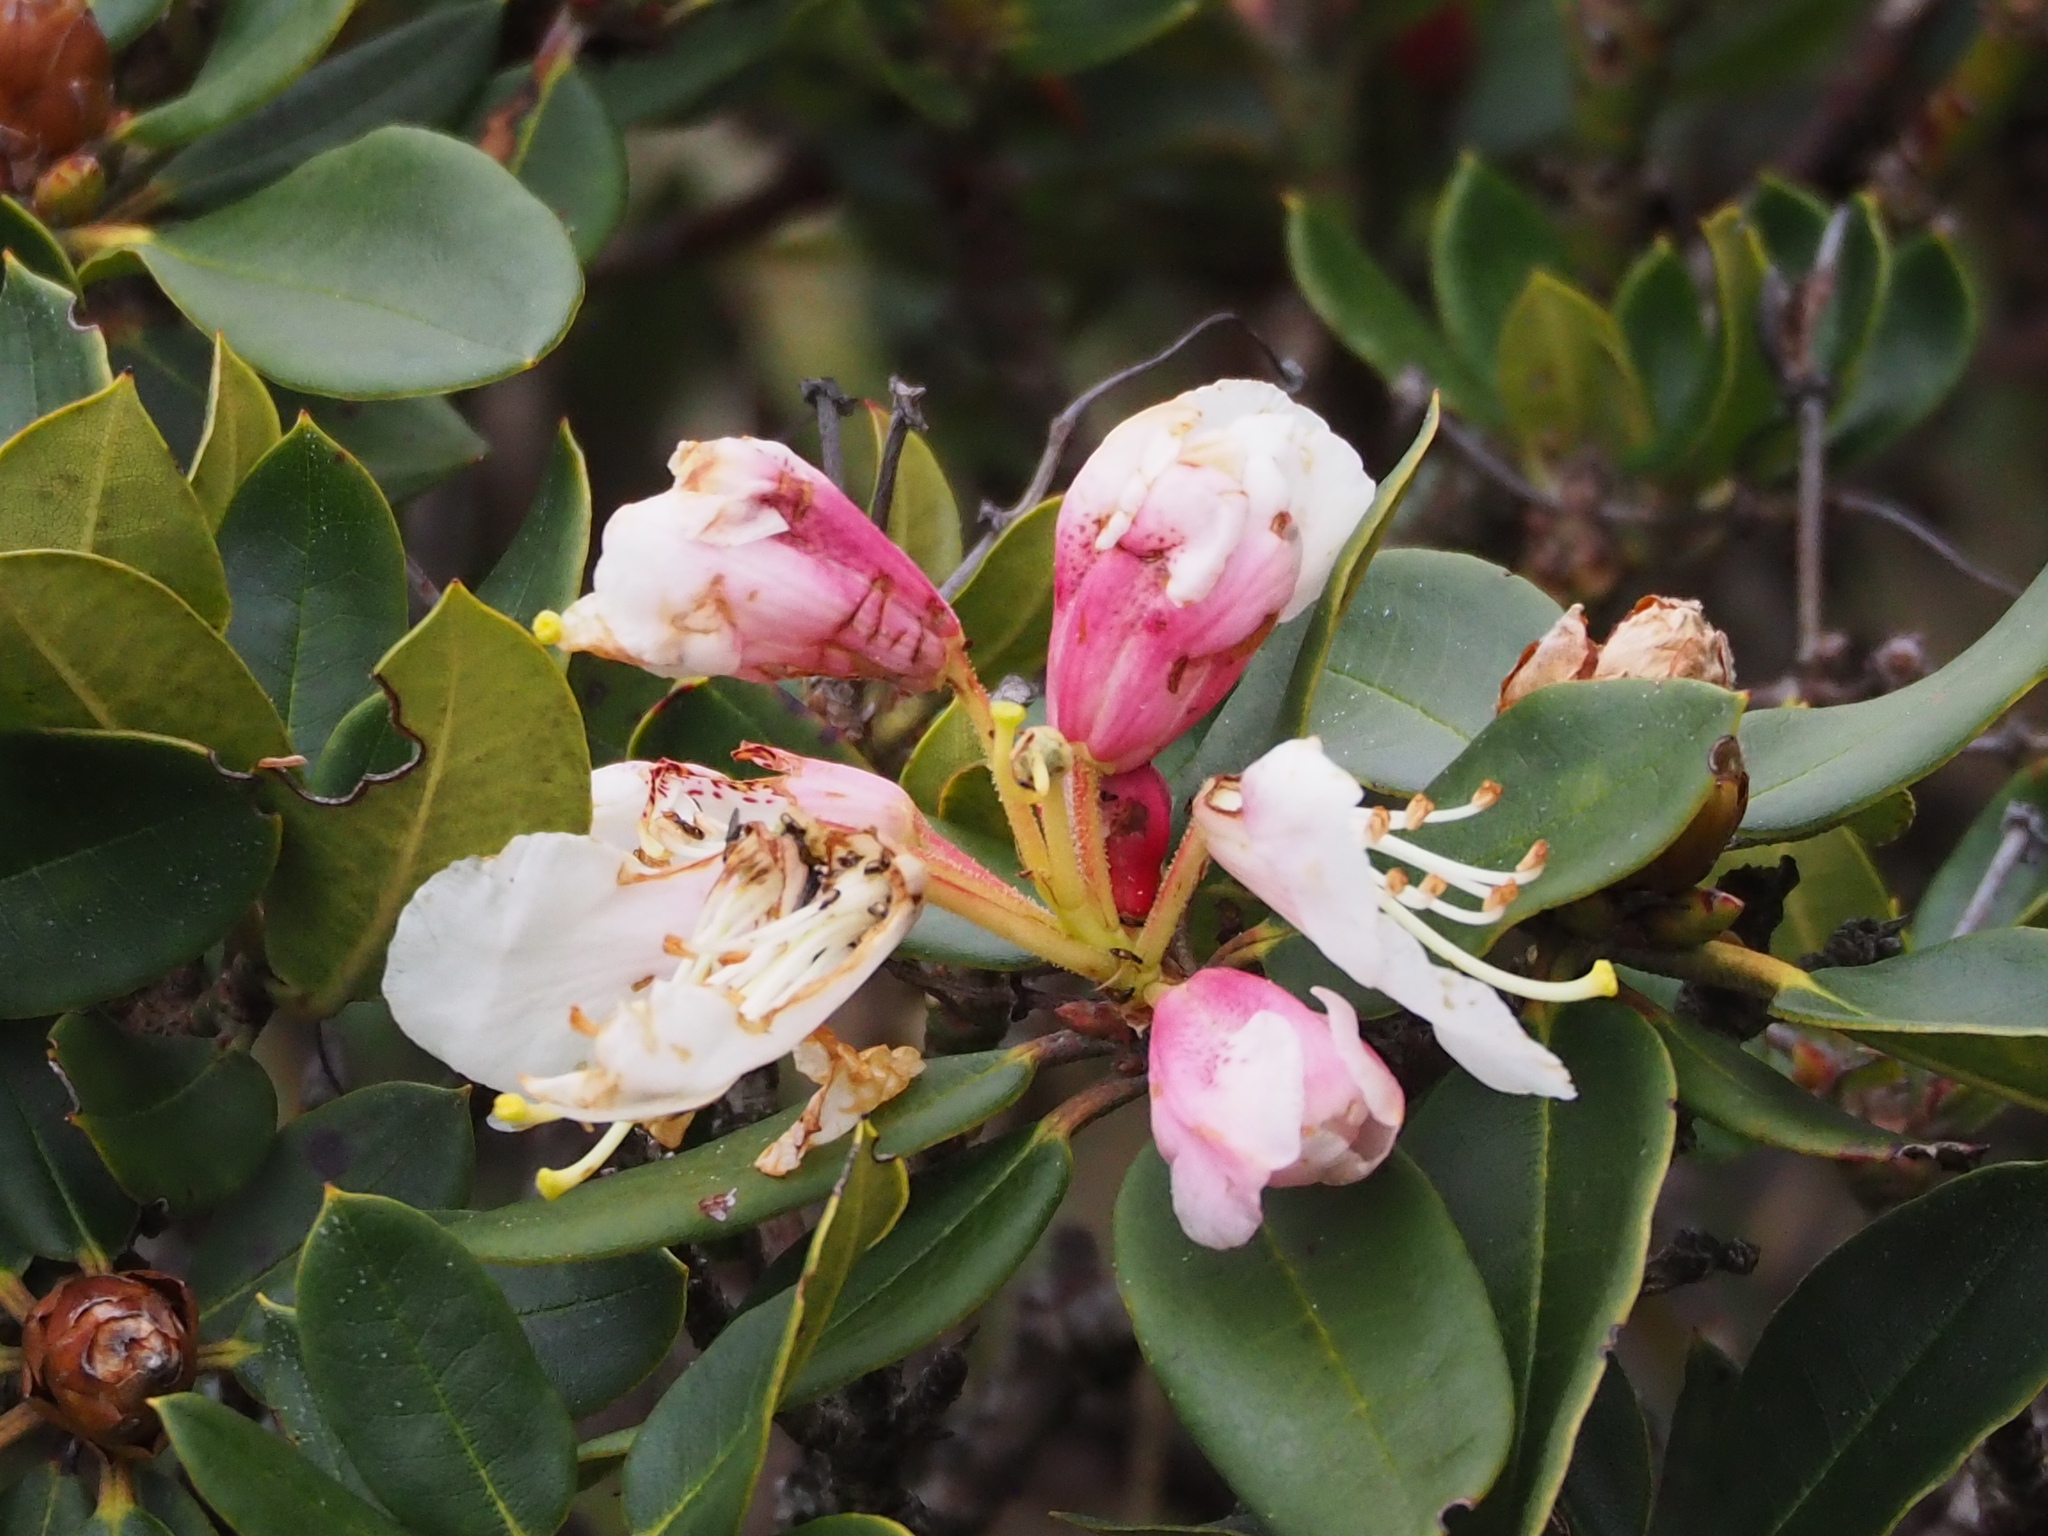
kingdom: Plantae
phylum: Tracheophyta
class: Magnoliopsida
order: Ericales
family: Ericaceae
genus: Rhododendron
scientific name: Rhododendron pseudochrysanthum
